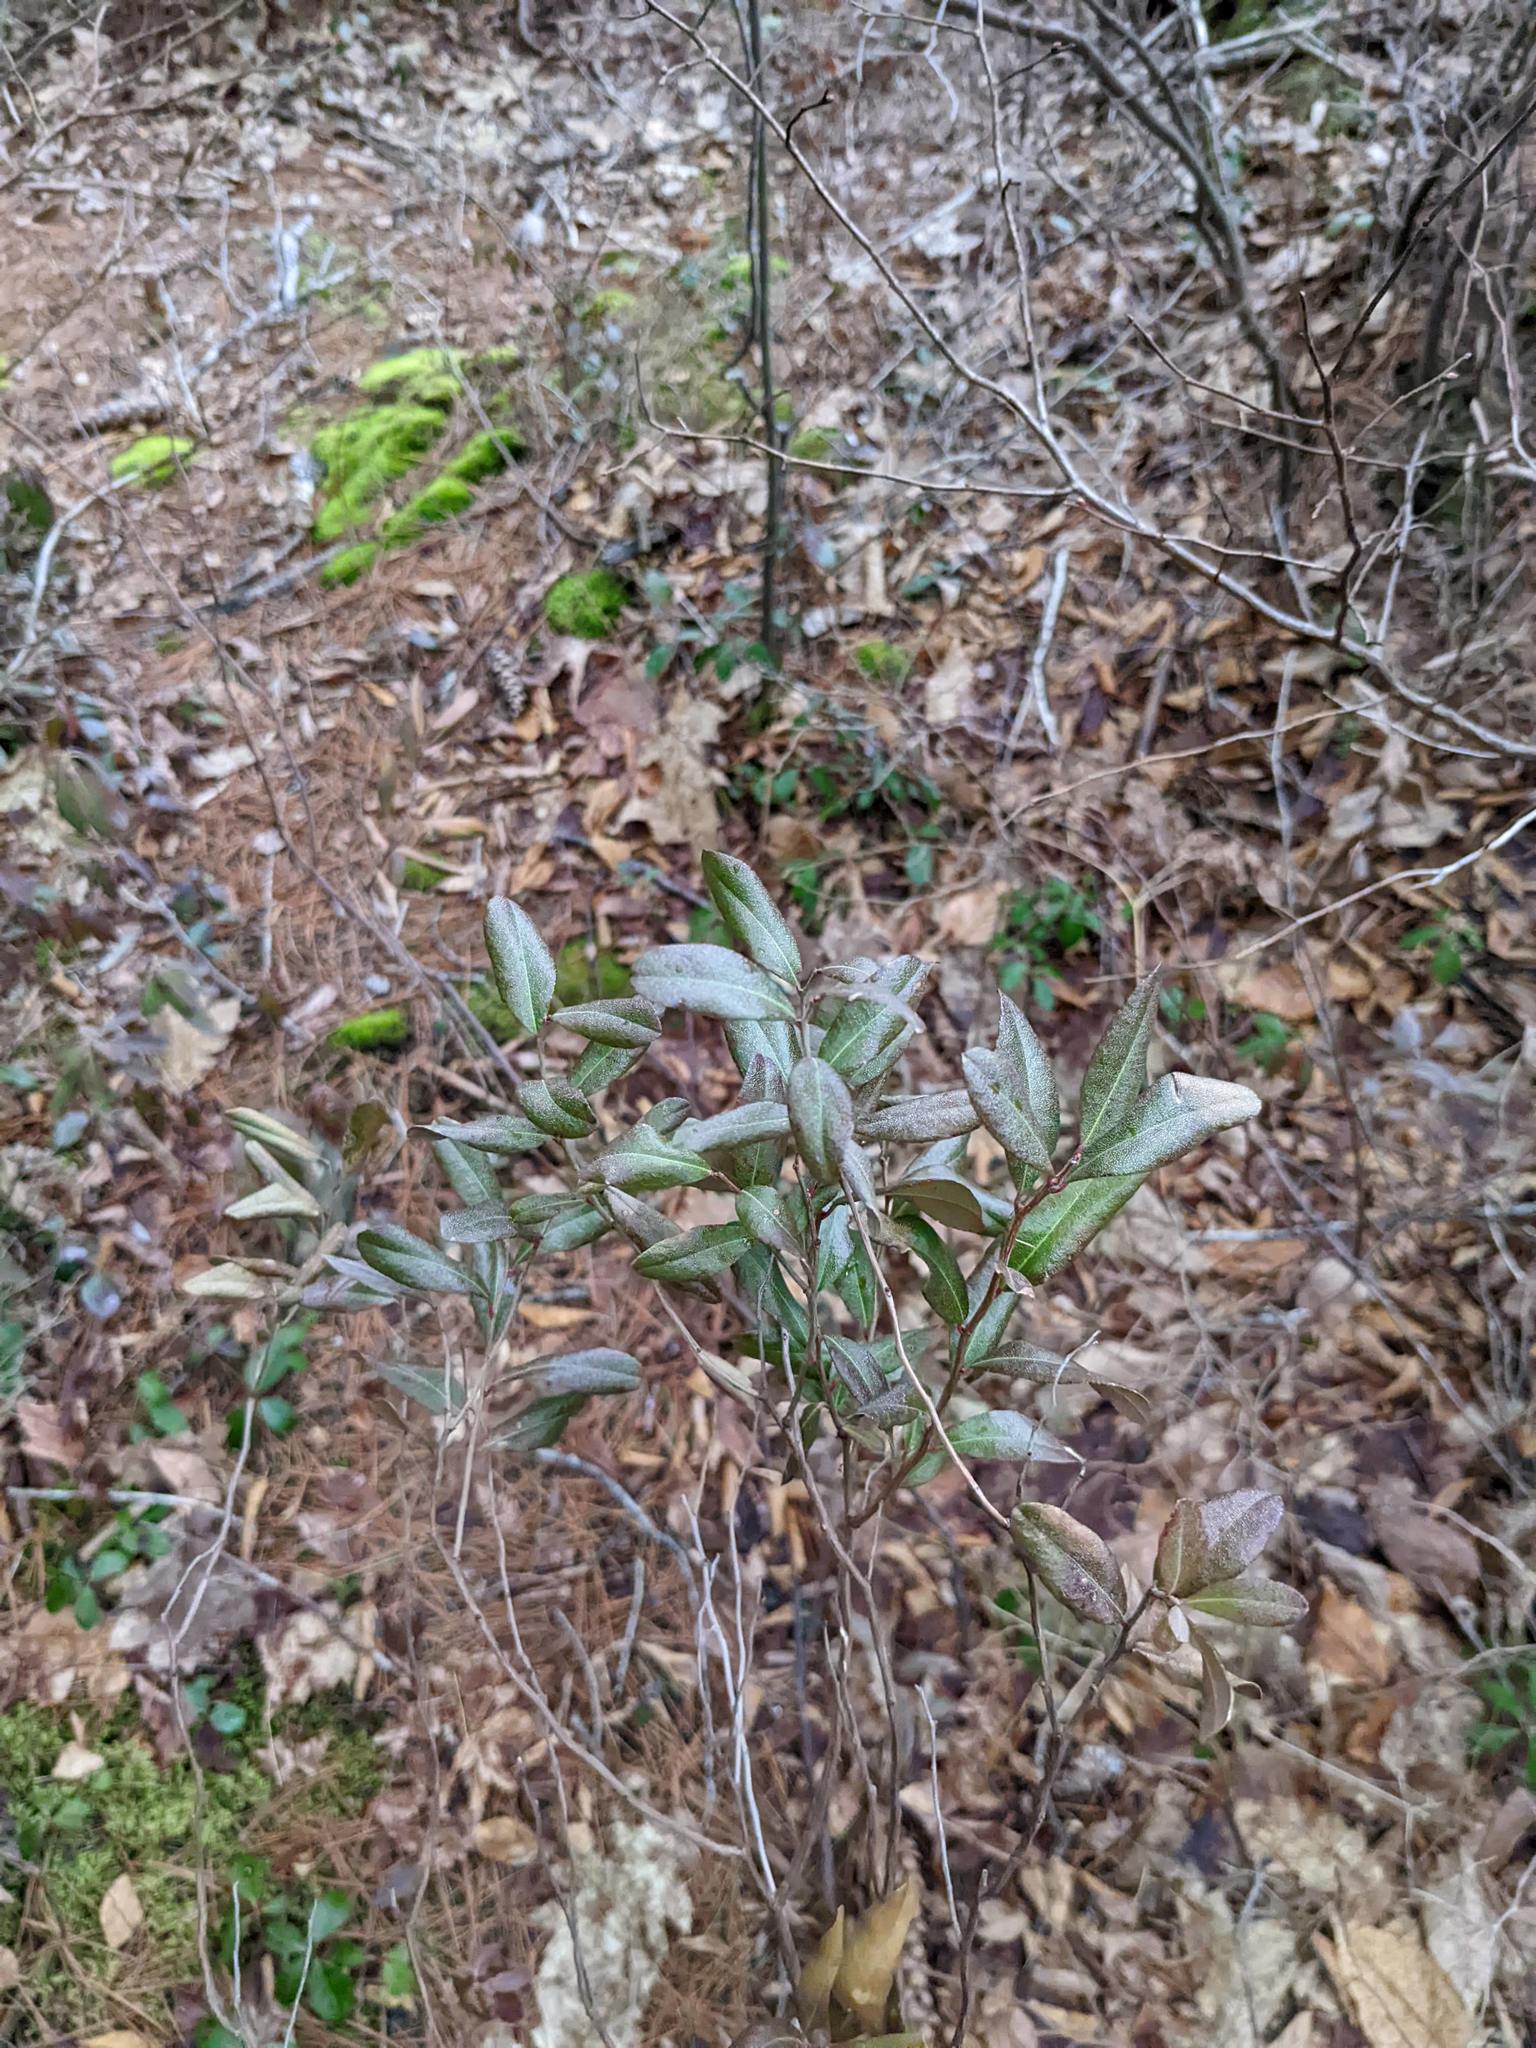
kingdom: Plantae
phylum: Tracheophyta
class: Magnoliopsida
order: Ericales
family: Ericaceae
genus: Chamaedaphne
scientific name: Chamaedaphne calyculata
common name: Leatherleaf
